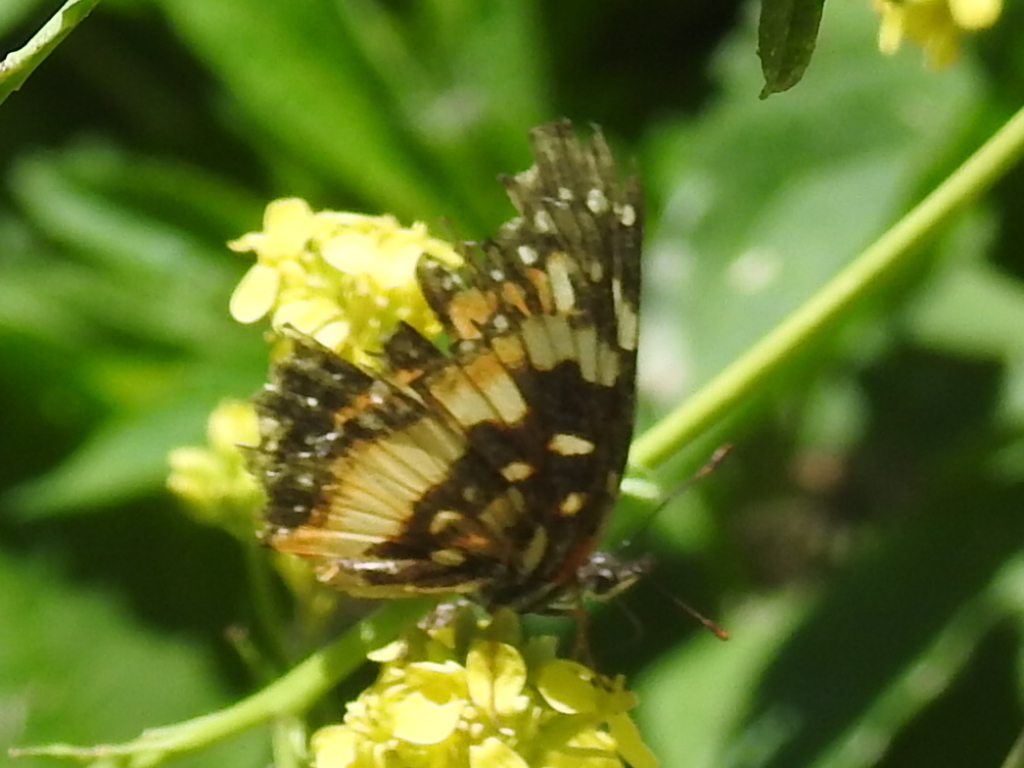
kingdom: Animalia
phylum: Arthropoda
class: Insecta
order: Lepidoptera
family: Nymphalidae
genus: Chlosyne
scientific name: Chlosyne lacinia
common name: Bordered patch
